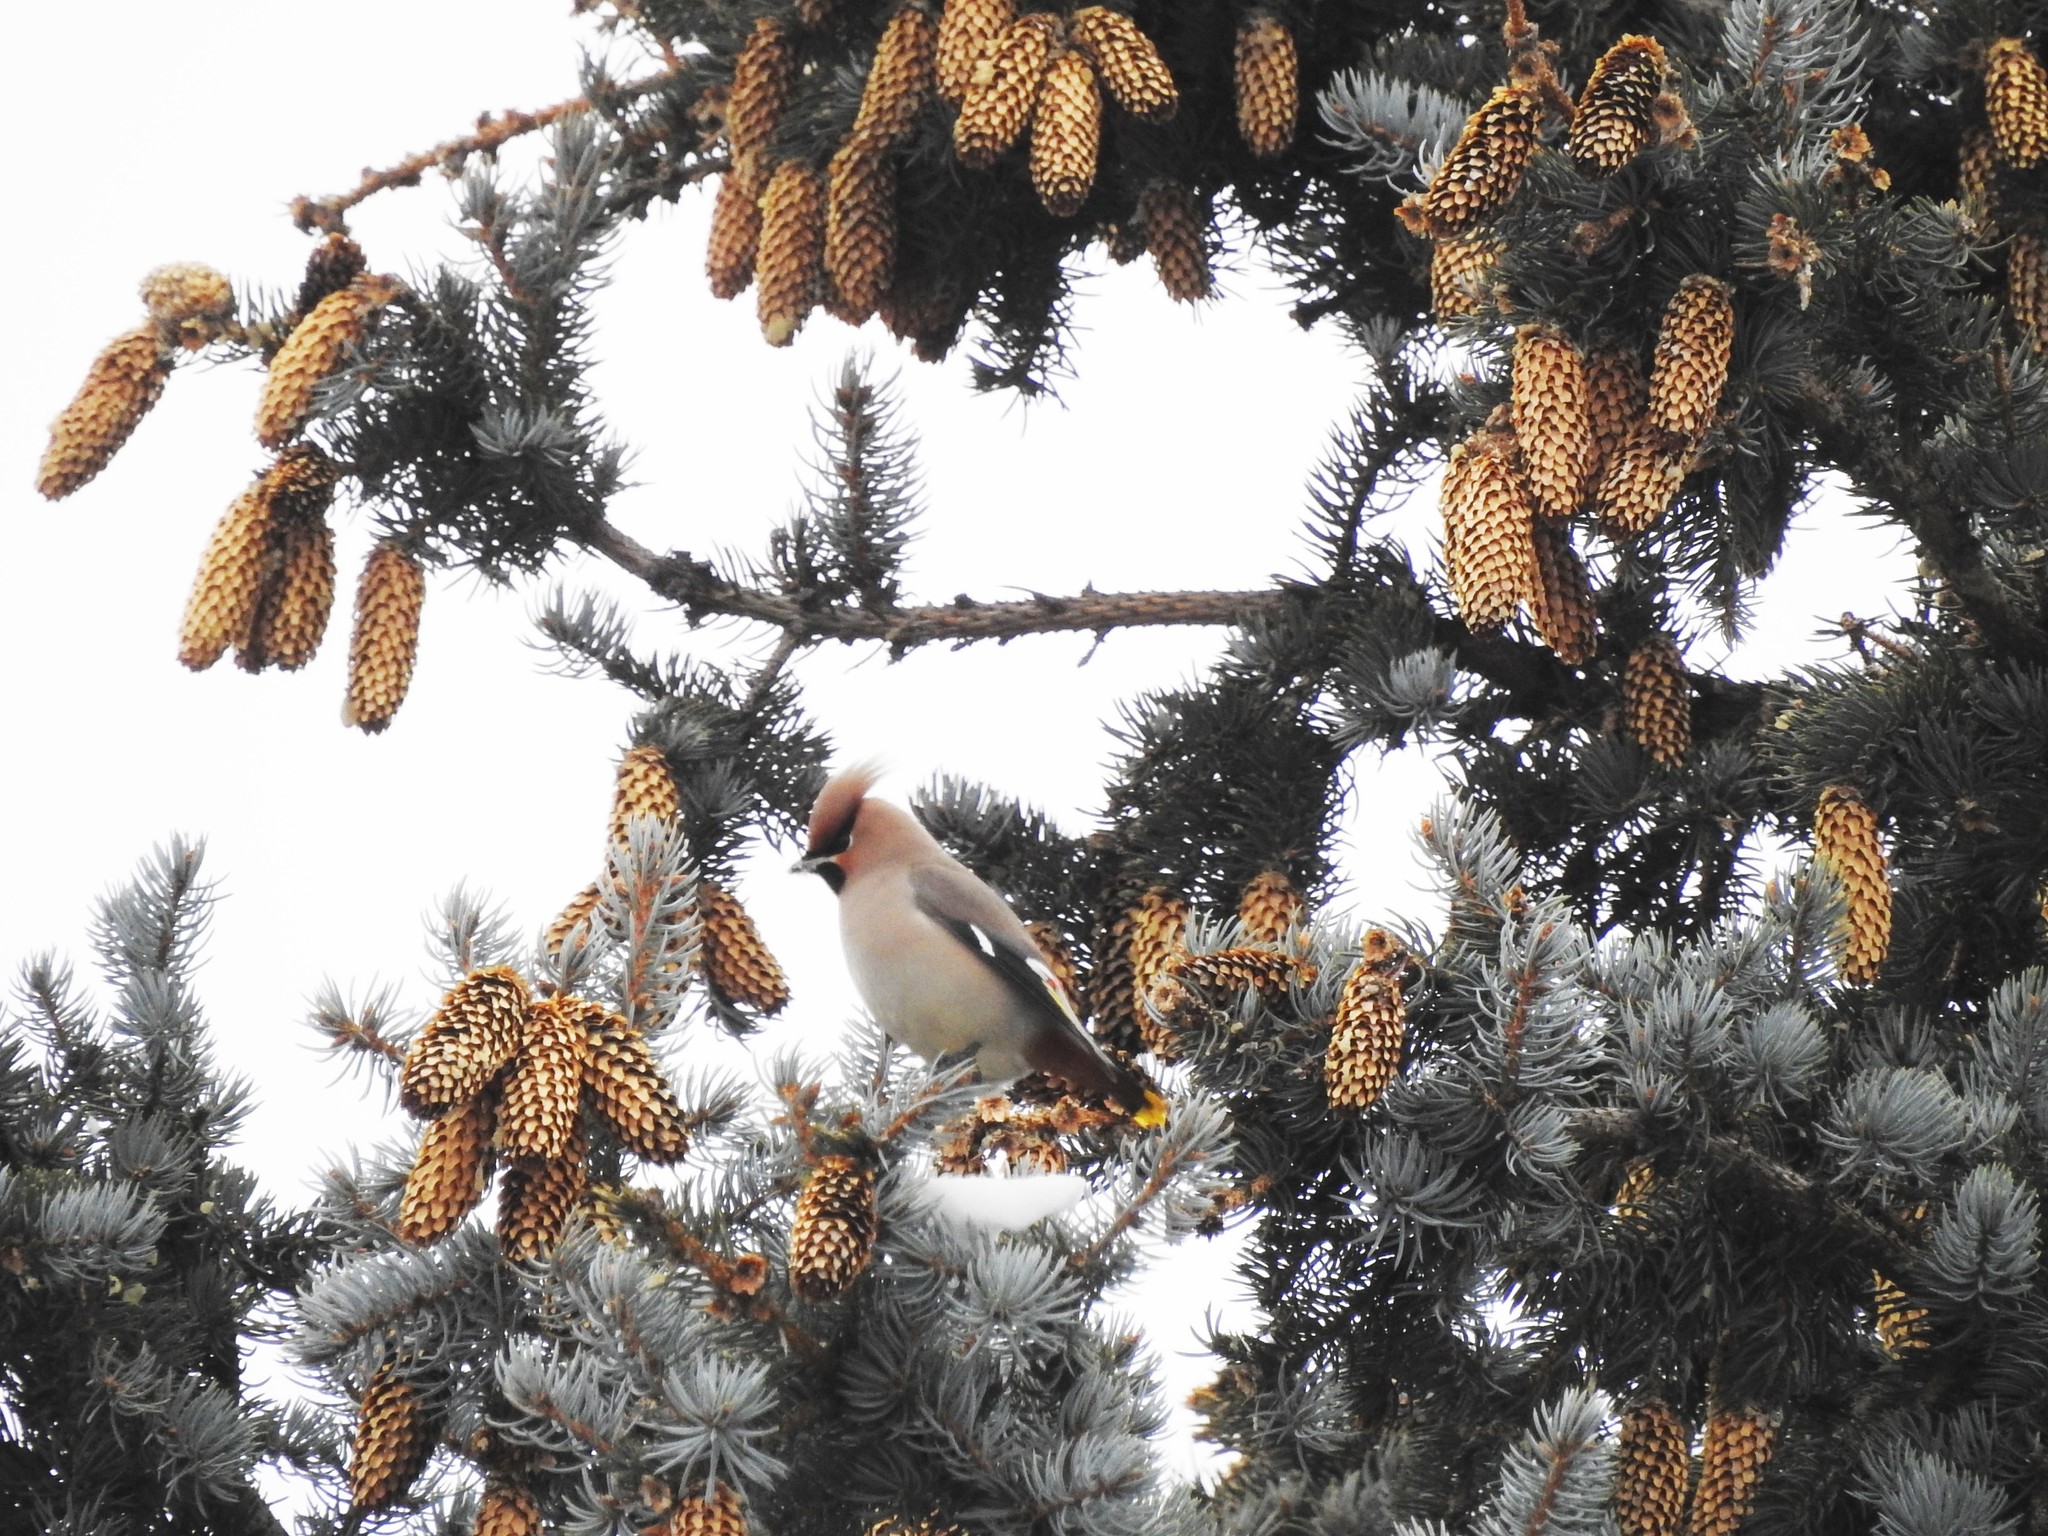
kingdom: Animalia
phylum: Chordata
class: Aves
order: Passeriformes
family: Bombycillidae
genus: Bombycilla
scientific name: Bombycilla garrulus
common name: Bohemian waxwing
